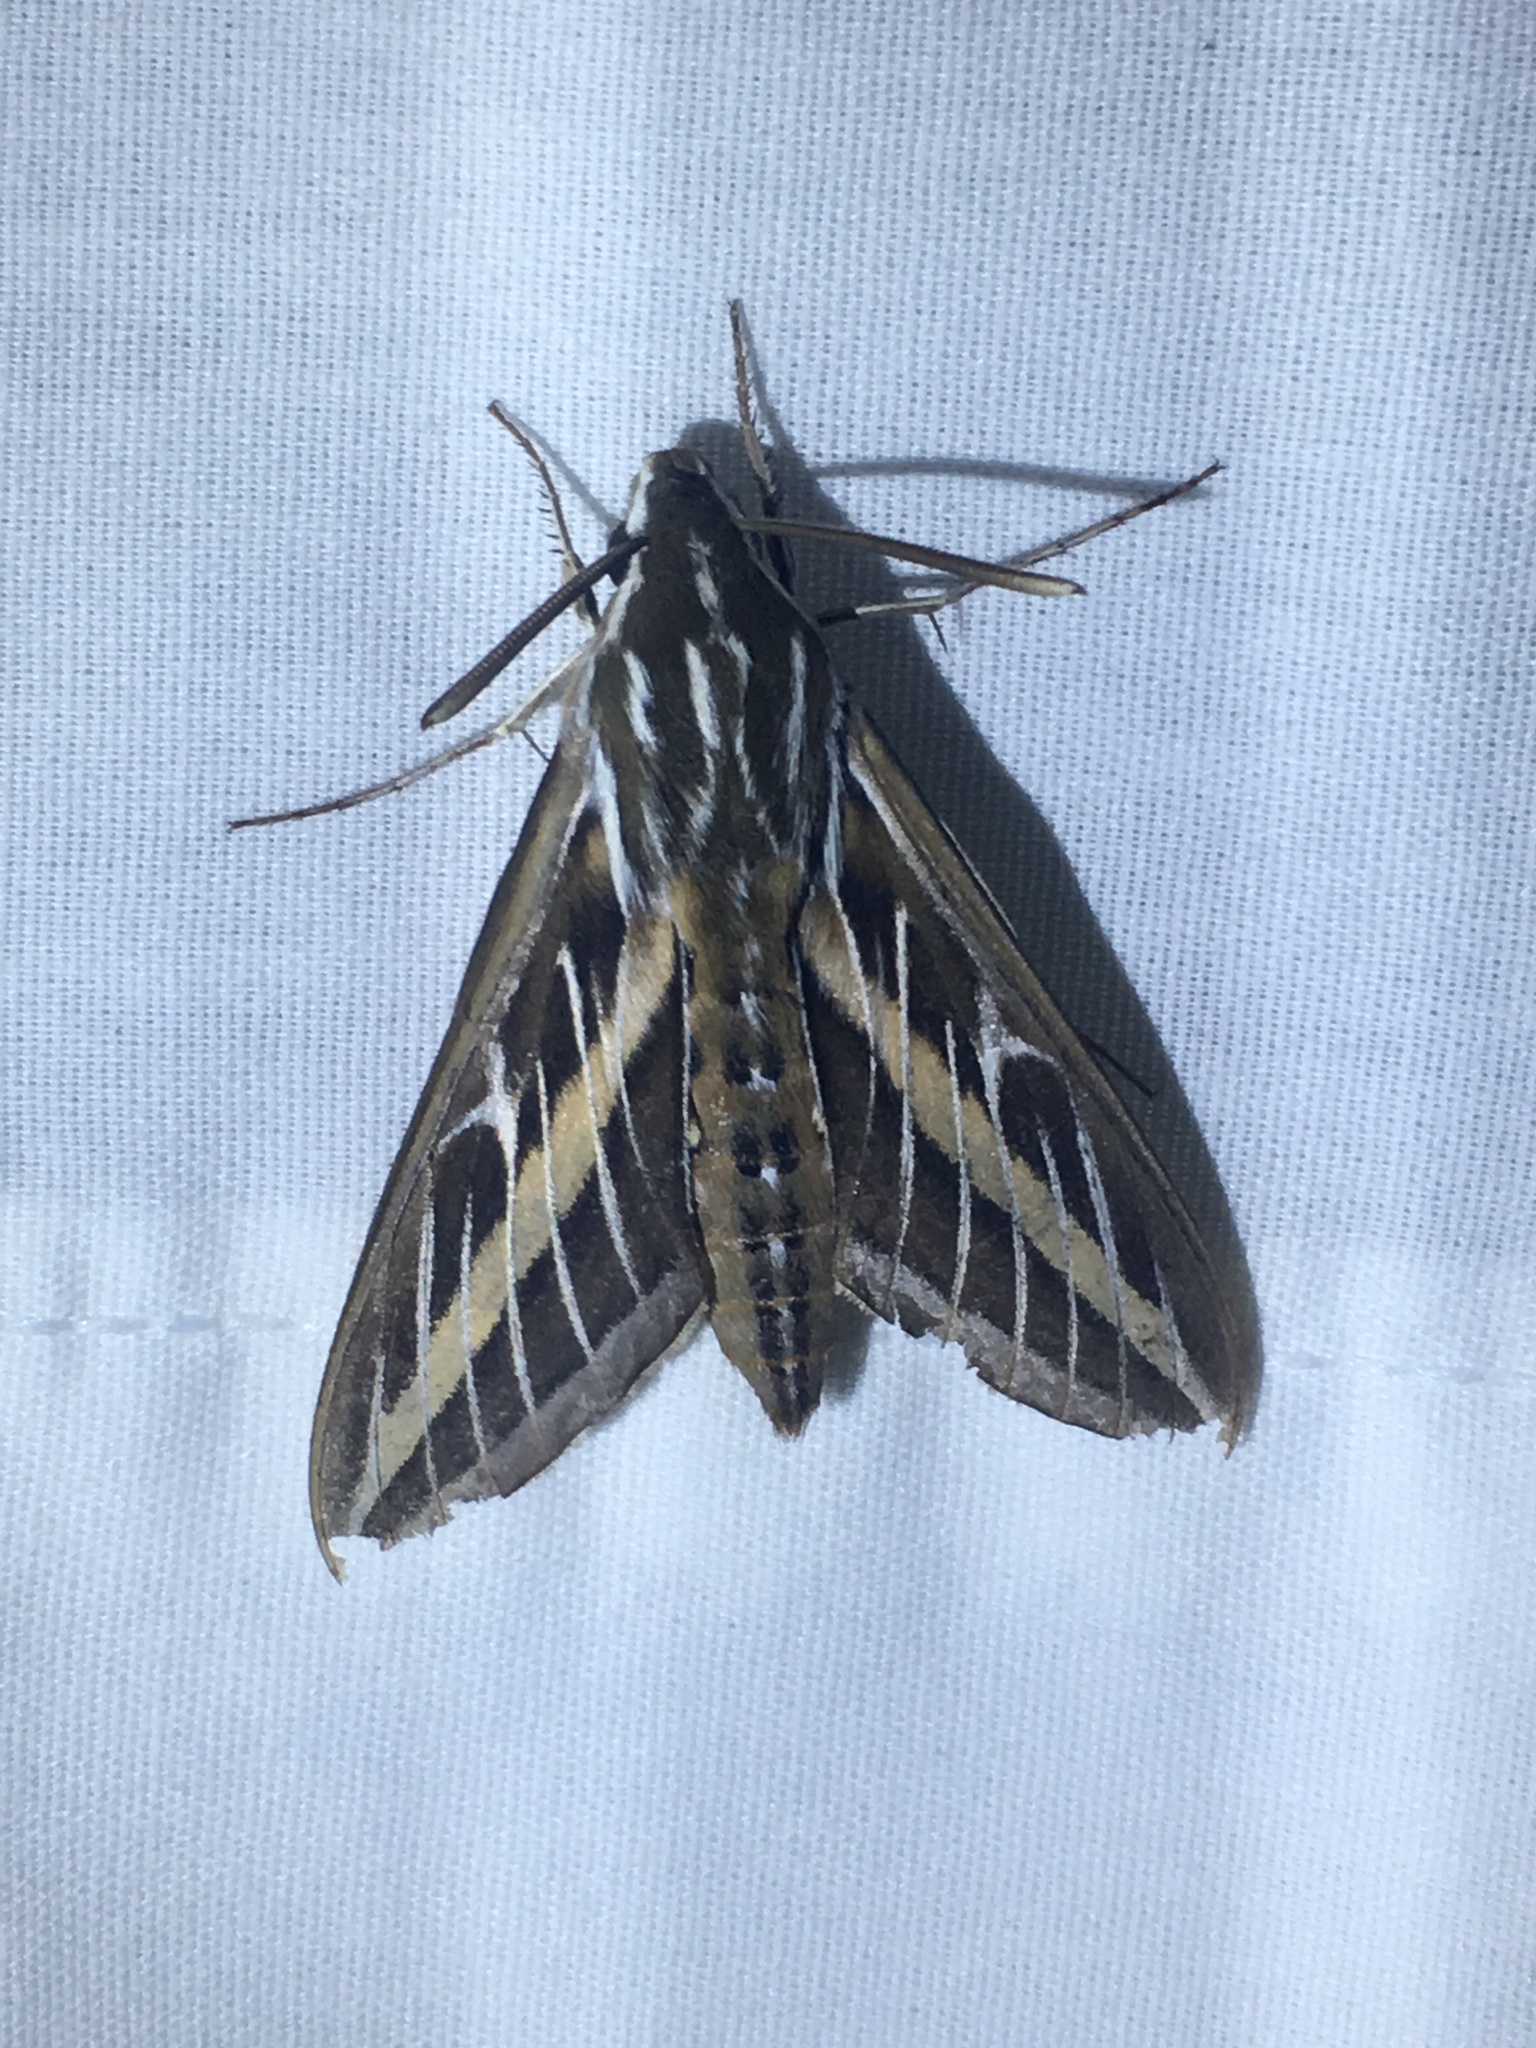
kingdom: Animalia
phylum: Arthropoda
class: Insecta
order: Lepidoptera
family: Sphingidae
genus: Hyles
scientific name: Hyles lineata
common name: White-lined sphinx
